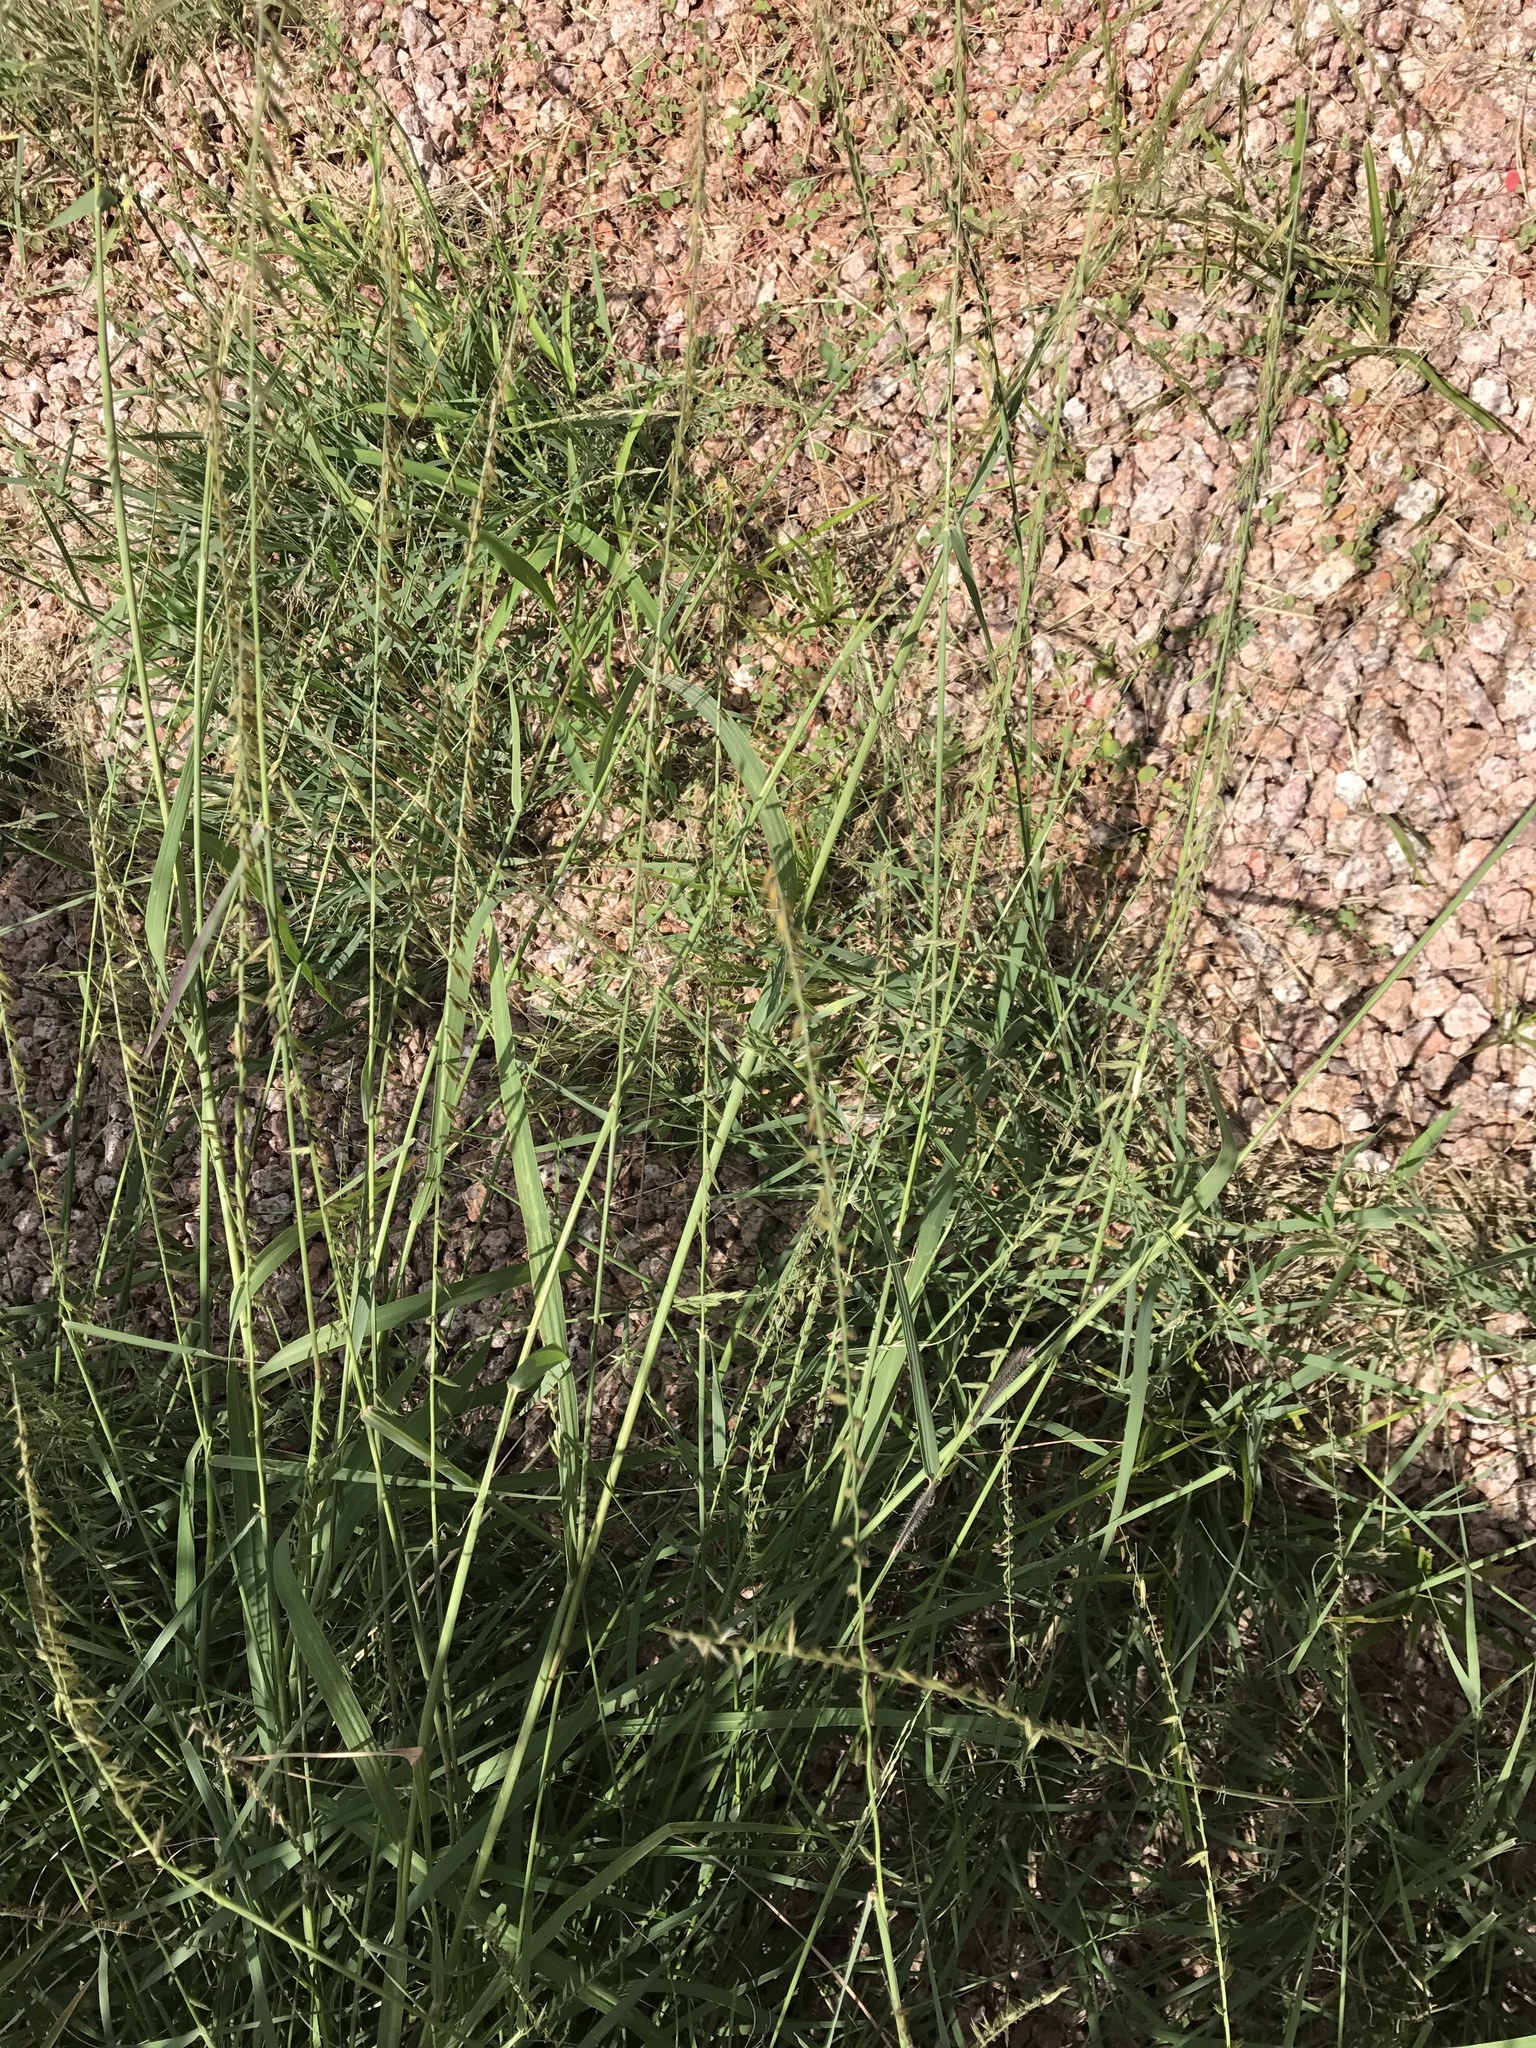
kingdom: Plantae
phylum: Tracheophyta
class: Liliopsida
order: Poales
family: Poaceae
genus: Disakisperma
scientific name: Disakisperma dubium
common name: Green sprangletop
